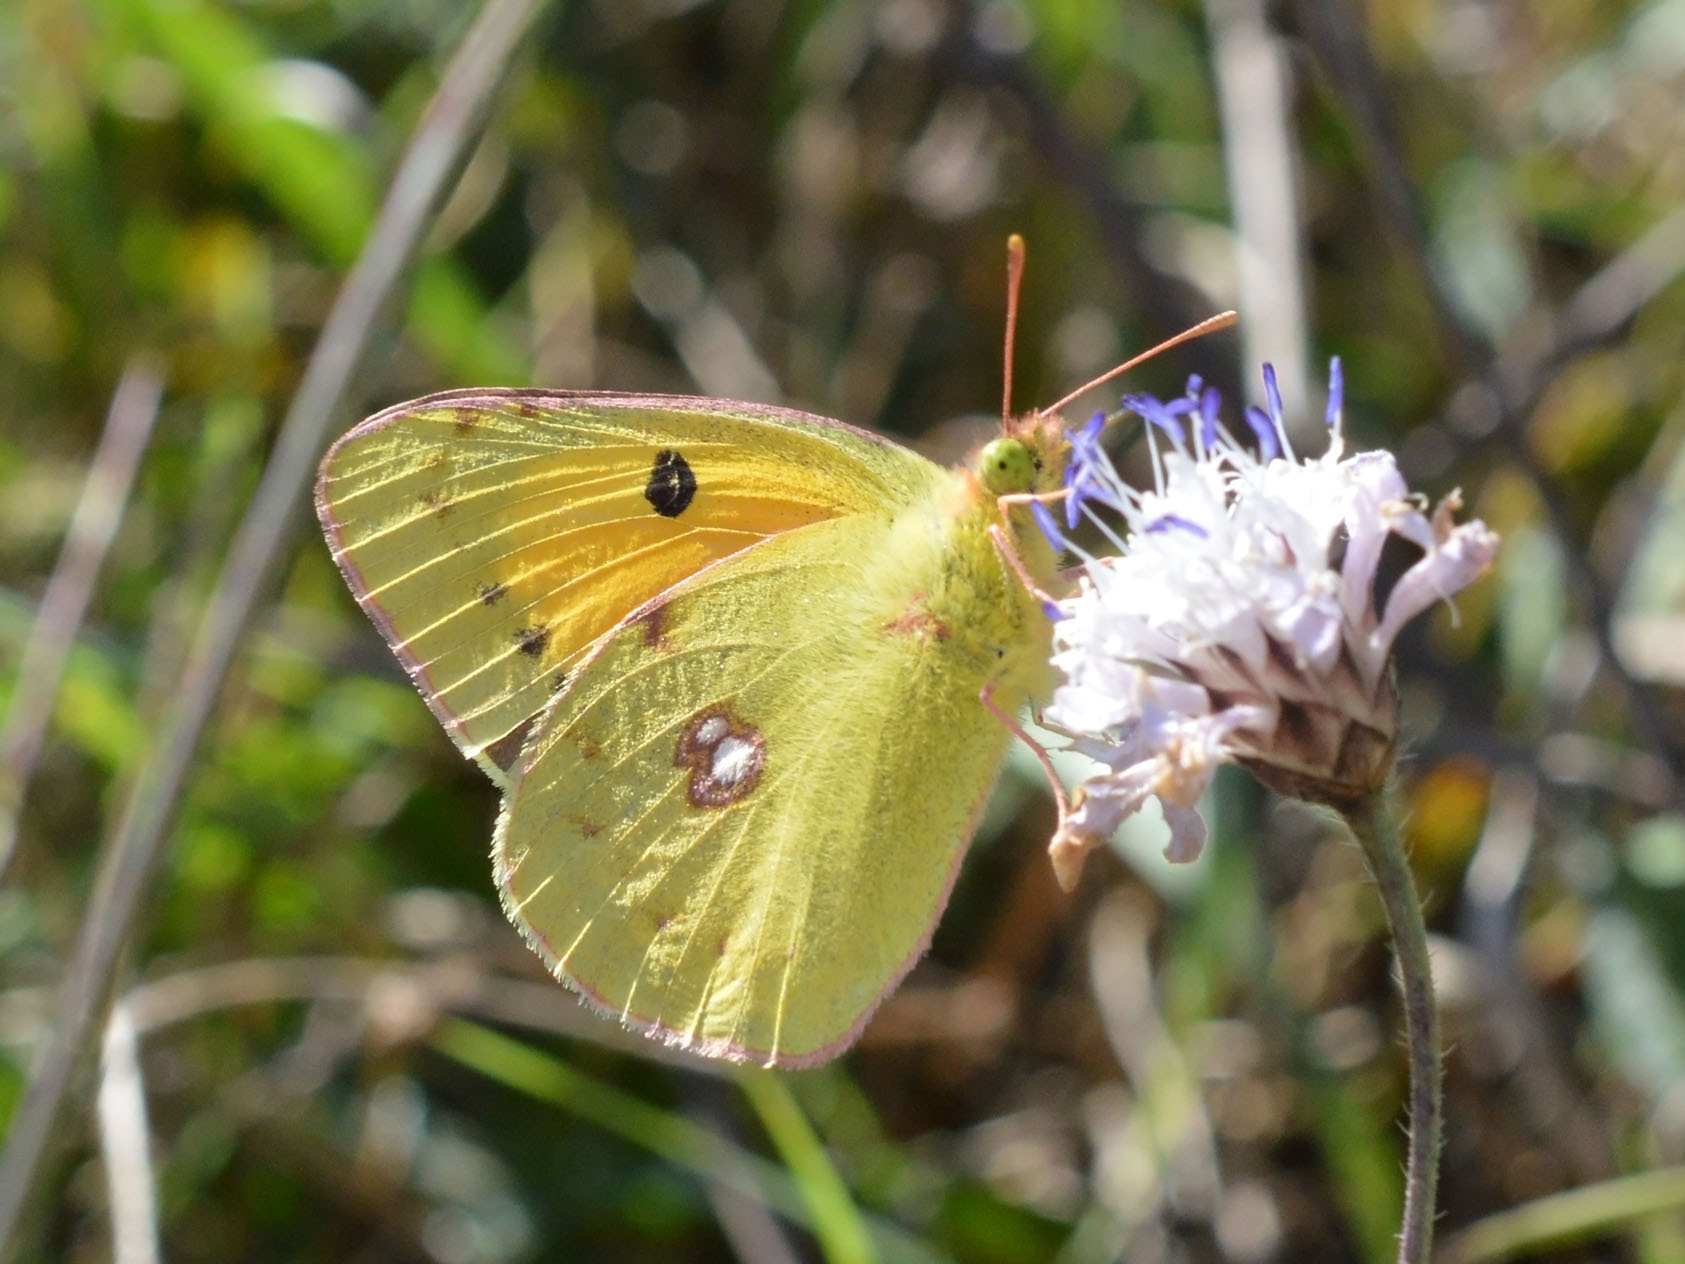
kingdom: Animalia
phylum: Arthropoda
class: Insecta
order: Lepidoptera
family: Pieridae
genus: Colias
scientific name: Colias croceus
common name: Clouded yellow
